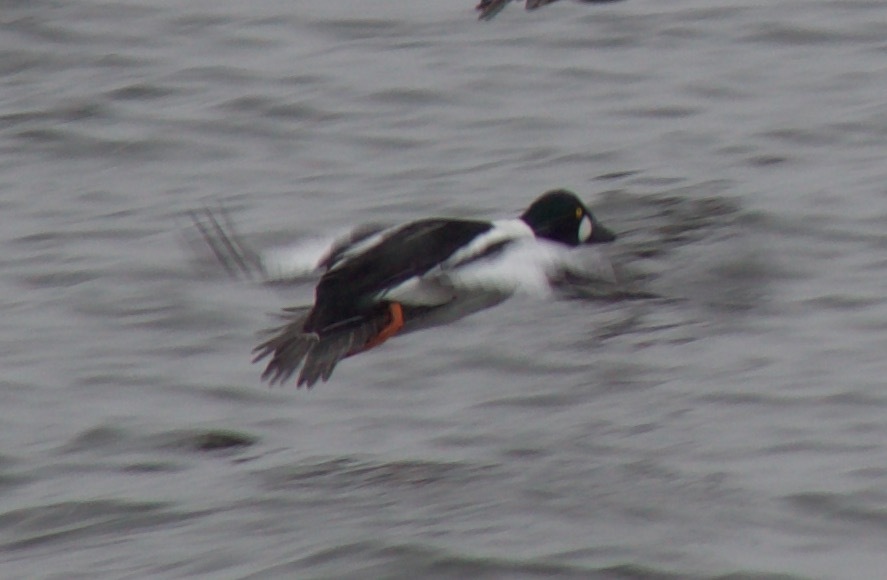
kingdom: Animalia
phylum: Chordata
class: Aves
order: Anseriformes
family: Anatidae
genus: Bucephala
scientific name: Bucephala clangula
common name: Common goldeneye
